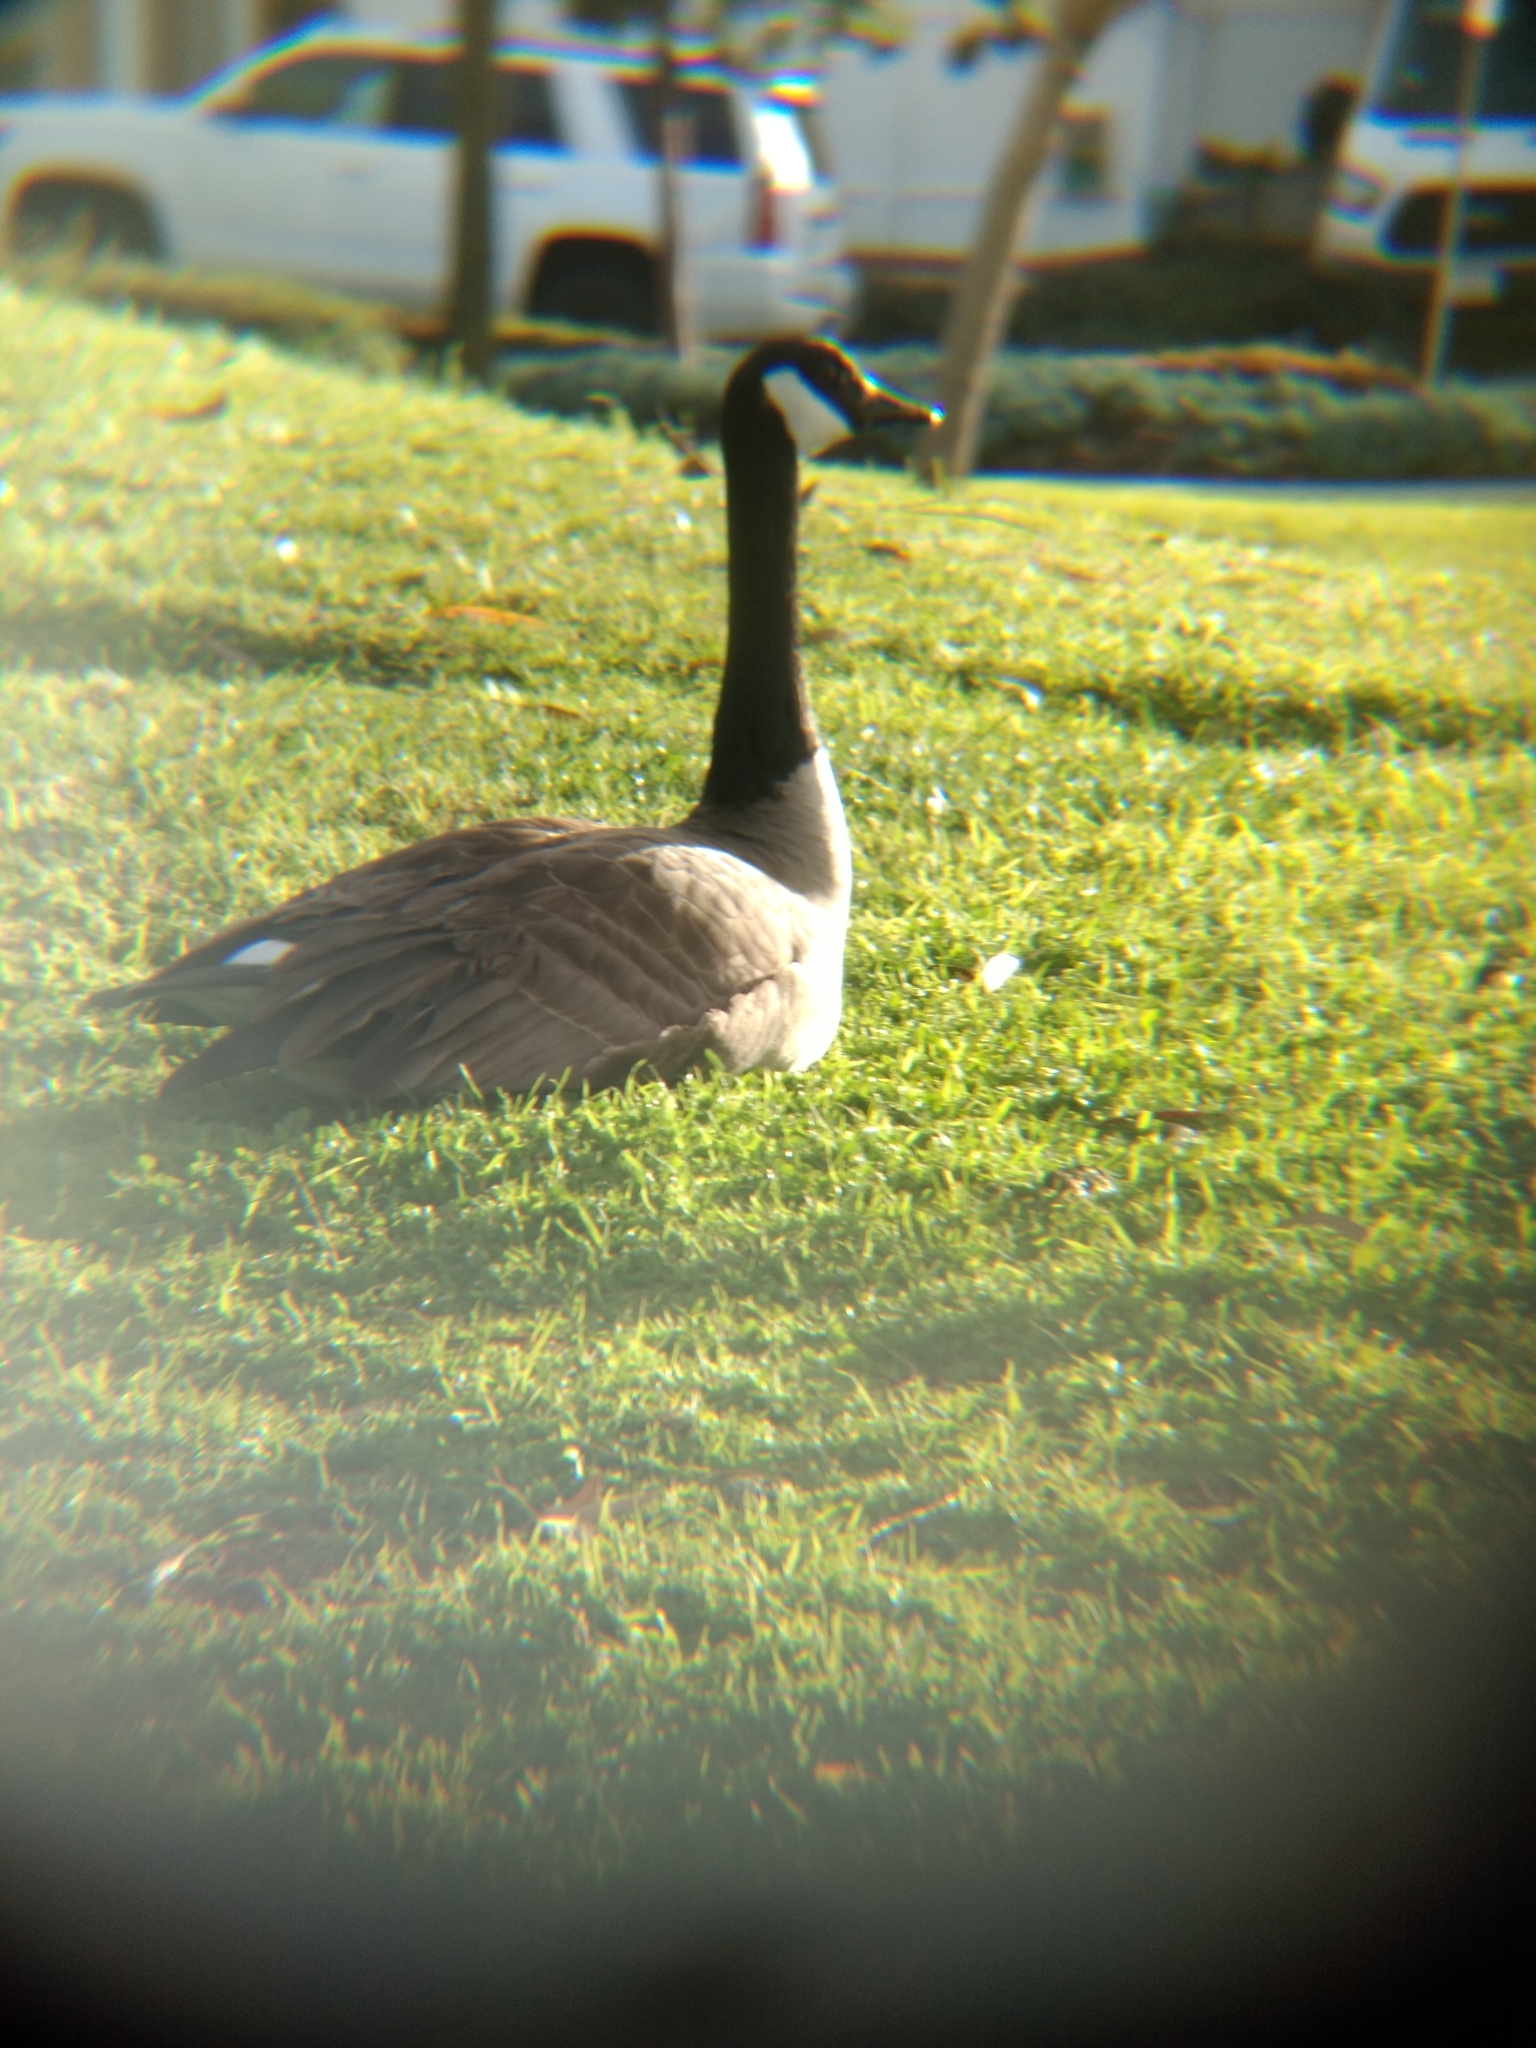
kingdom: Animalia
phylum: Chordata
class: Aves
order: Anseriformes
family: Anatidae
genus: Branta
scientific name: Branta canadensis
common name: Canada goose
